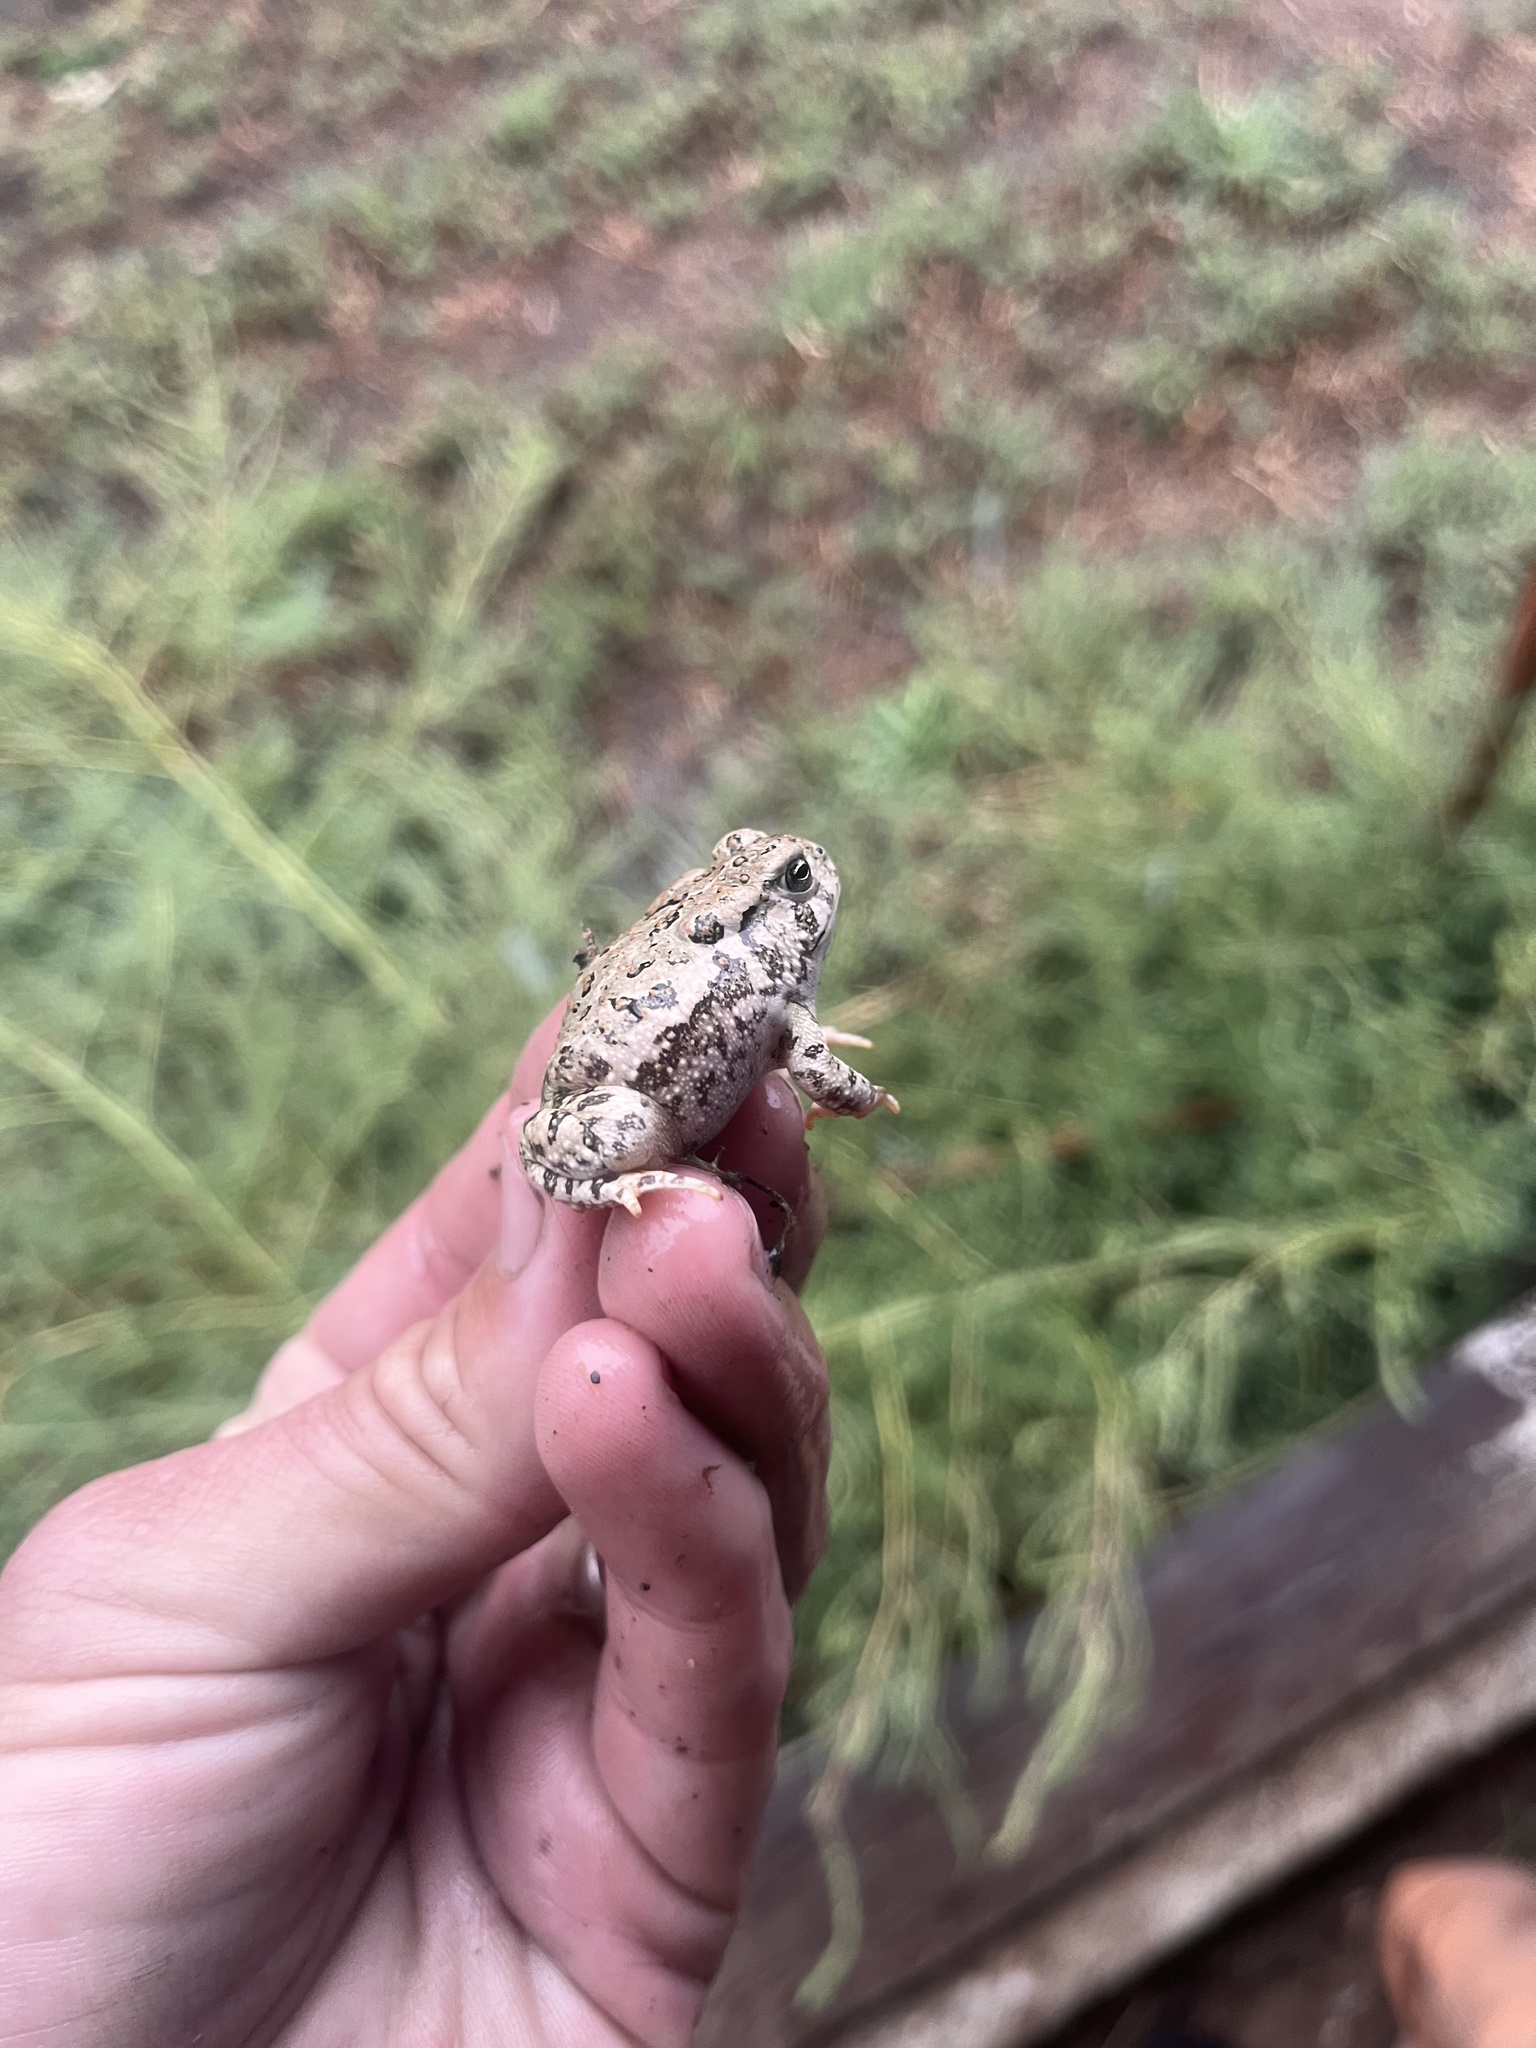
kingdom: Animalia
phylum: Chordata
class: Amphibia
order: Anura
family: Bufonidae
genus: Anaxyrus
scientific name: Anaxyrus woodhousii
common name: Woodhouse's toad
